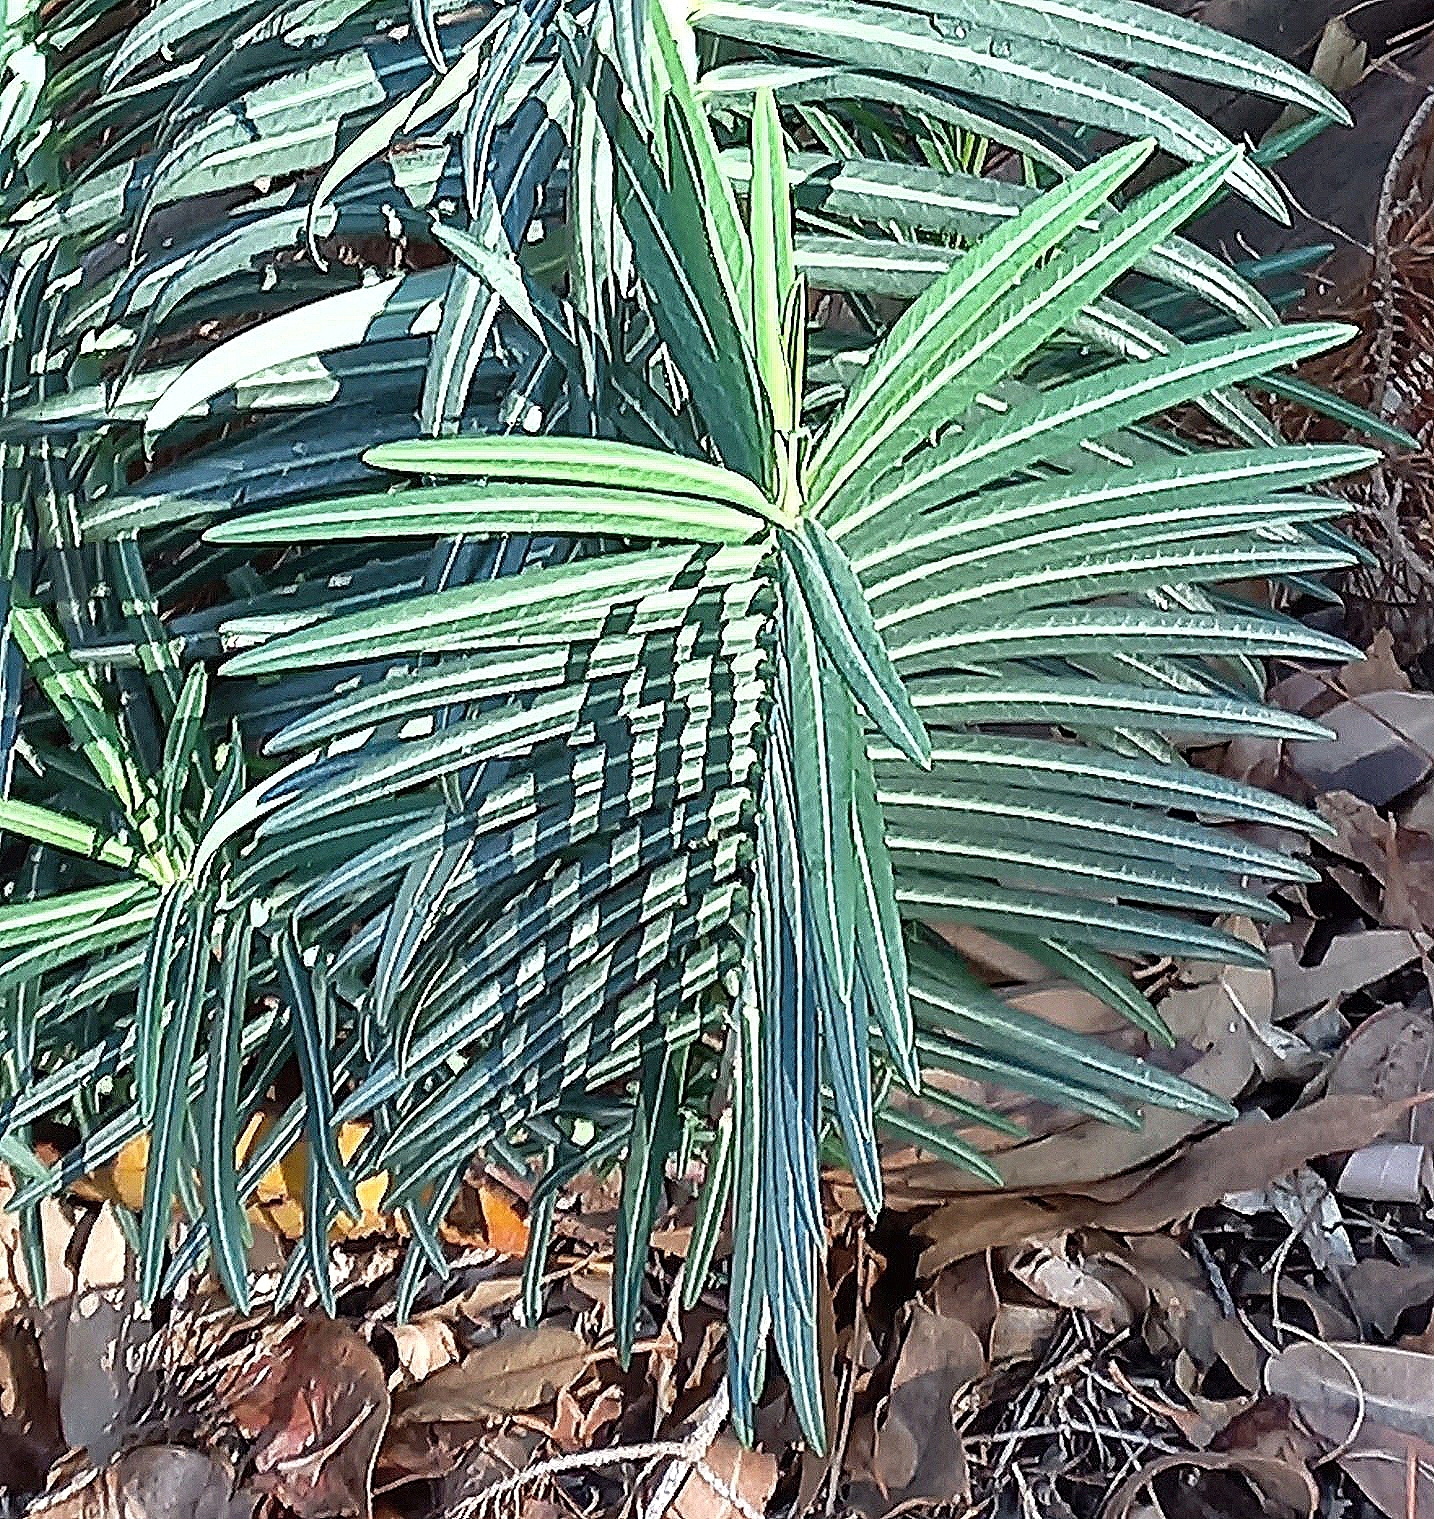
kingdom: Plantae
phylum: Tracheophyta
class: Magnoliopsida
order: Malpighiales
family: Euphorbiaceae
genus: Euphorbia
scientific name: Euphorbia lathyris
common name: Caper spurge
